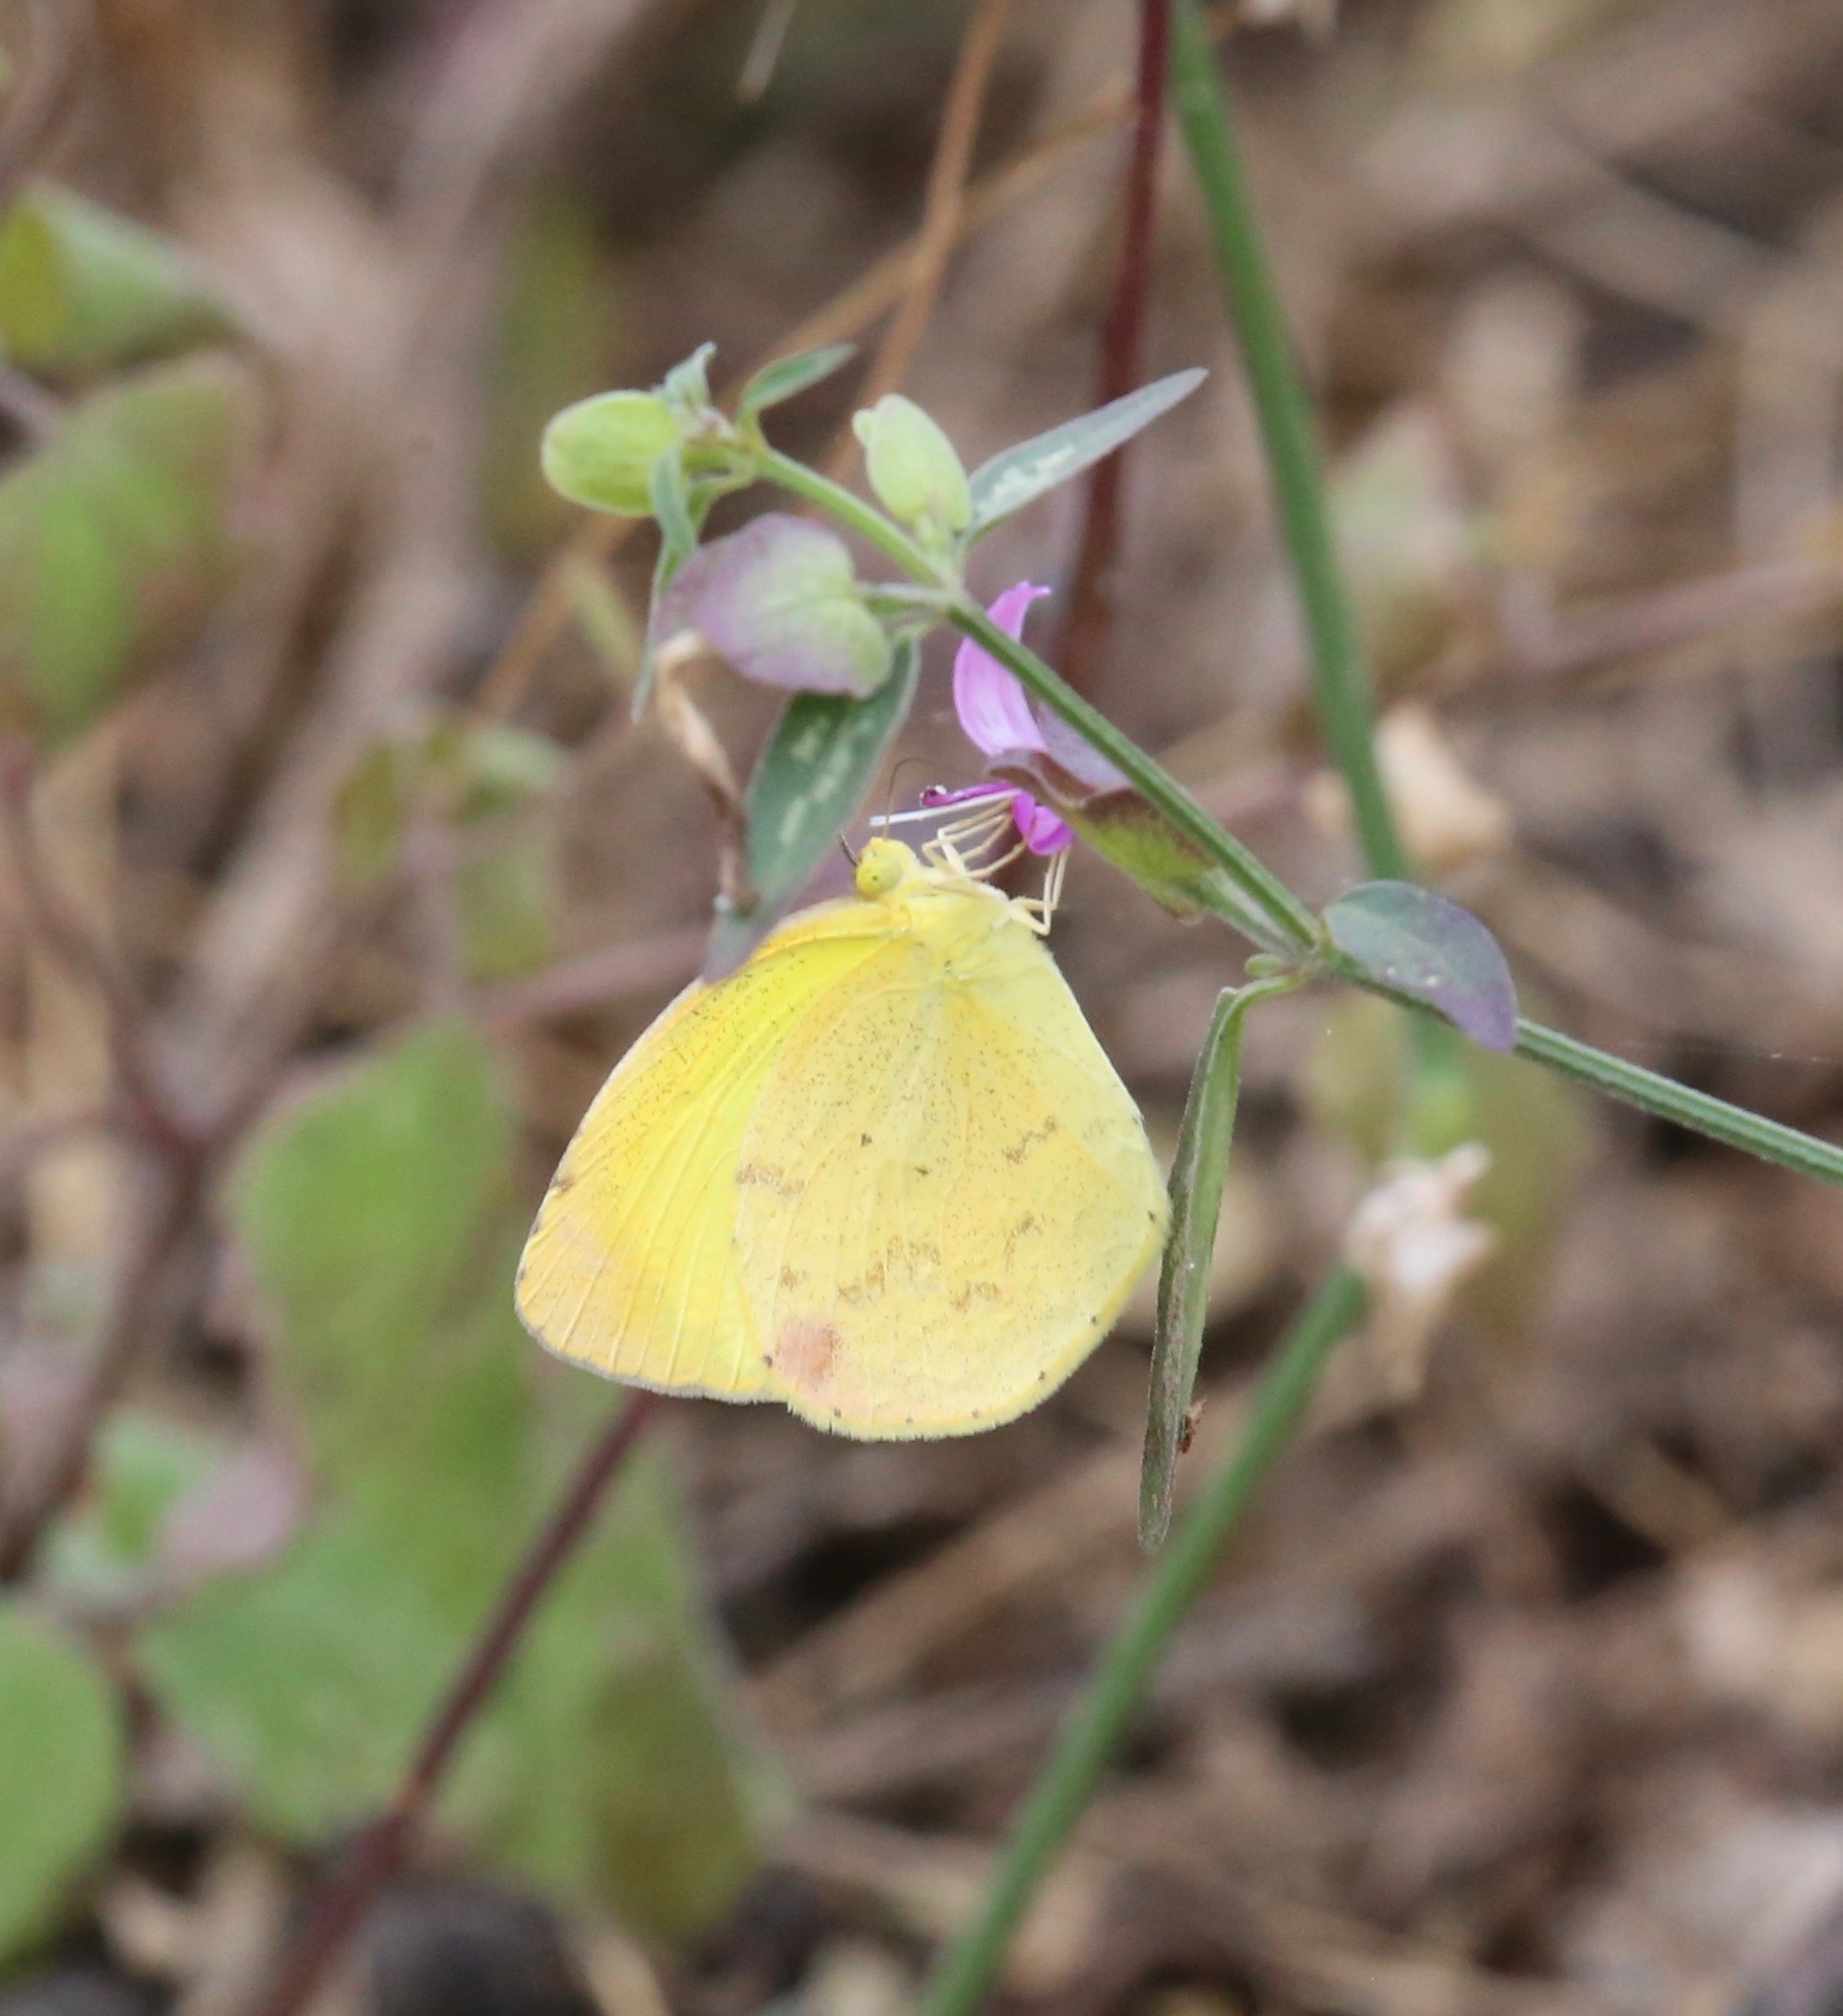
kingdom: Animalia
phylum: Arthropoda
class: Insecta
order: Lepidoptera
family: Pieridae
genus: Pyrisitia
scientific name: Pyrisitia nise
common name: Mimosa yellow
